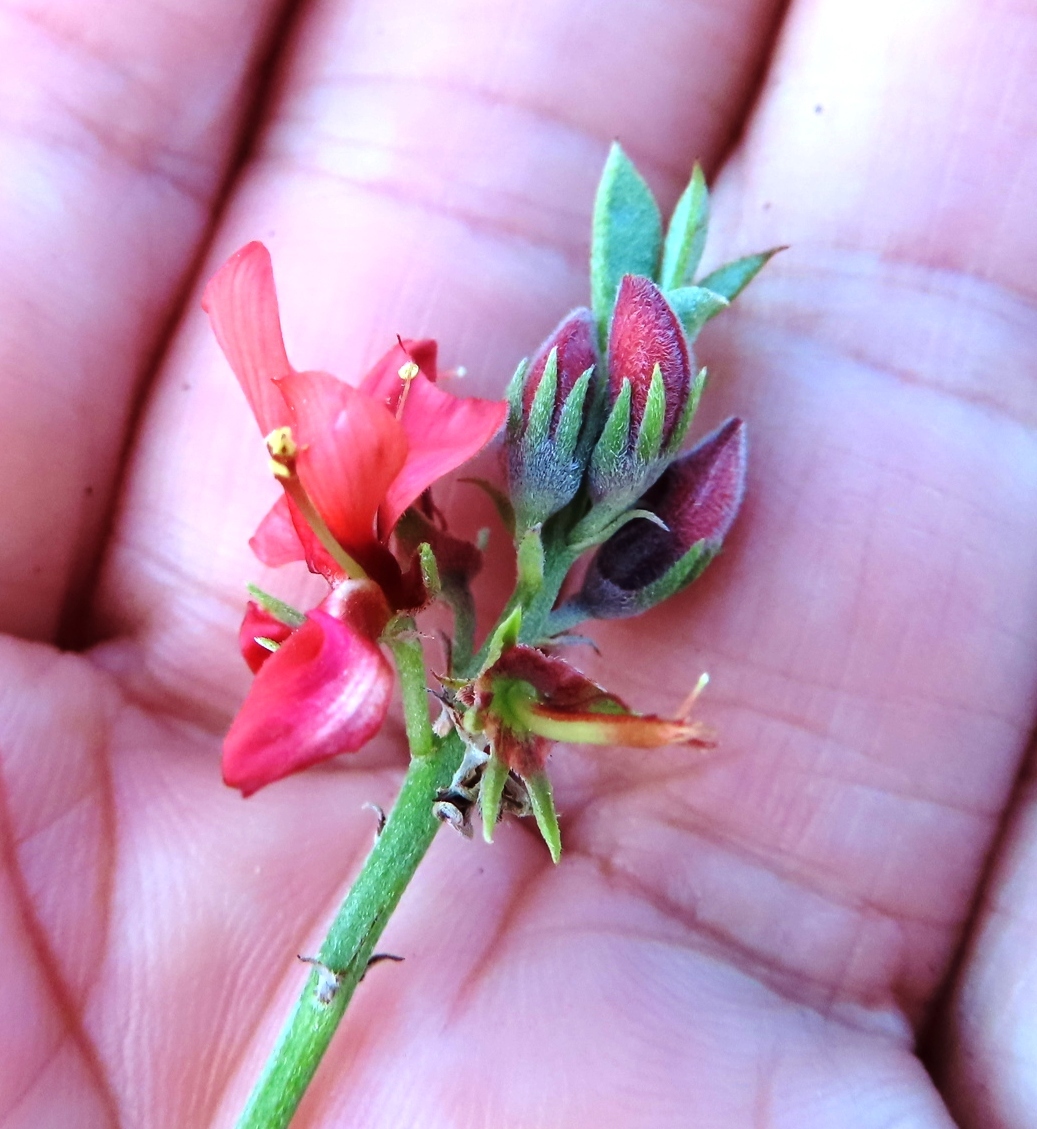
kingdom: Plantae
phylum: Tracheophyta
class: Magnoliopsida
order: Fabales
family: Fabaceae
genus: Indigofera
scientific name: Indigofera complanata
